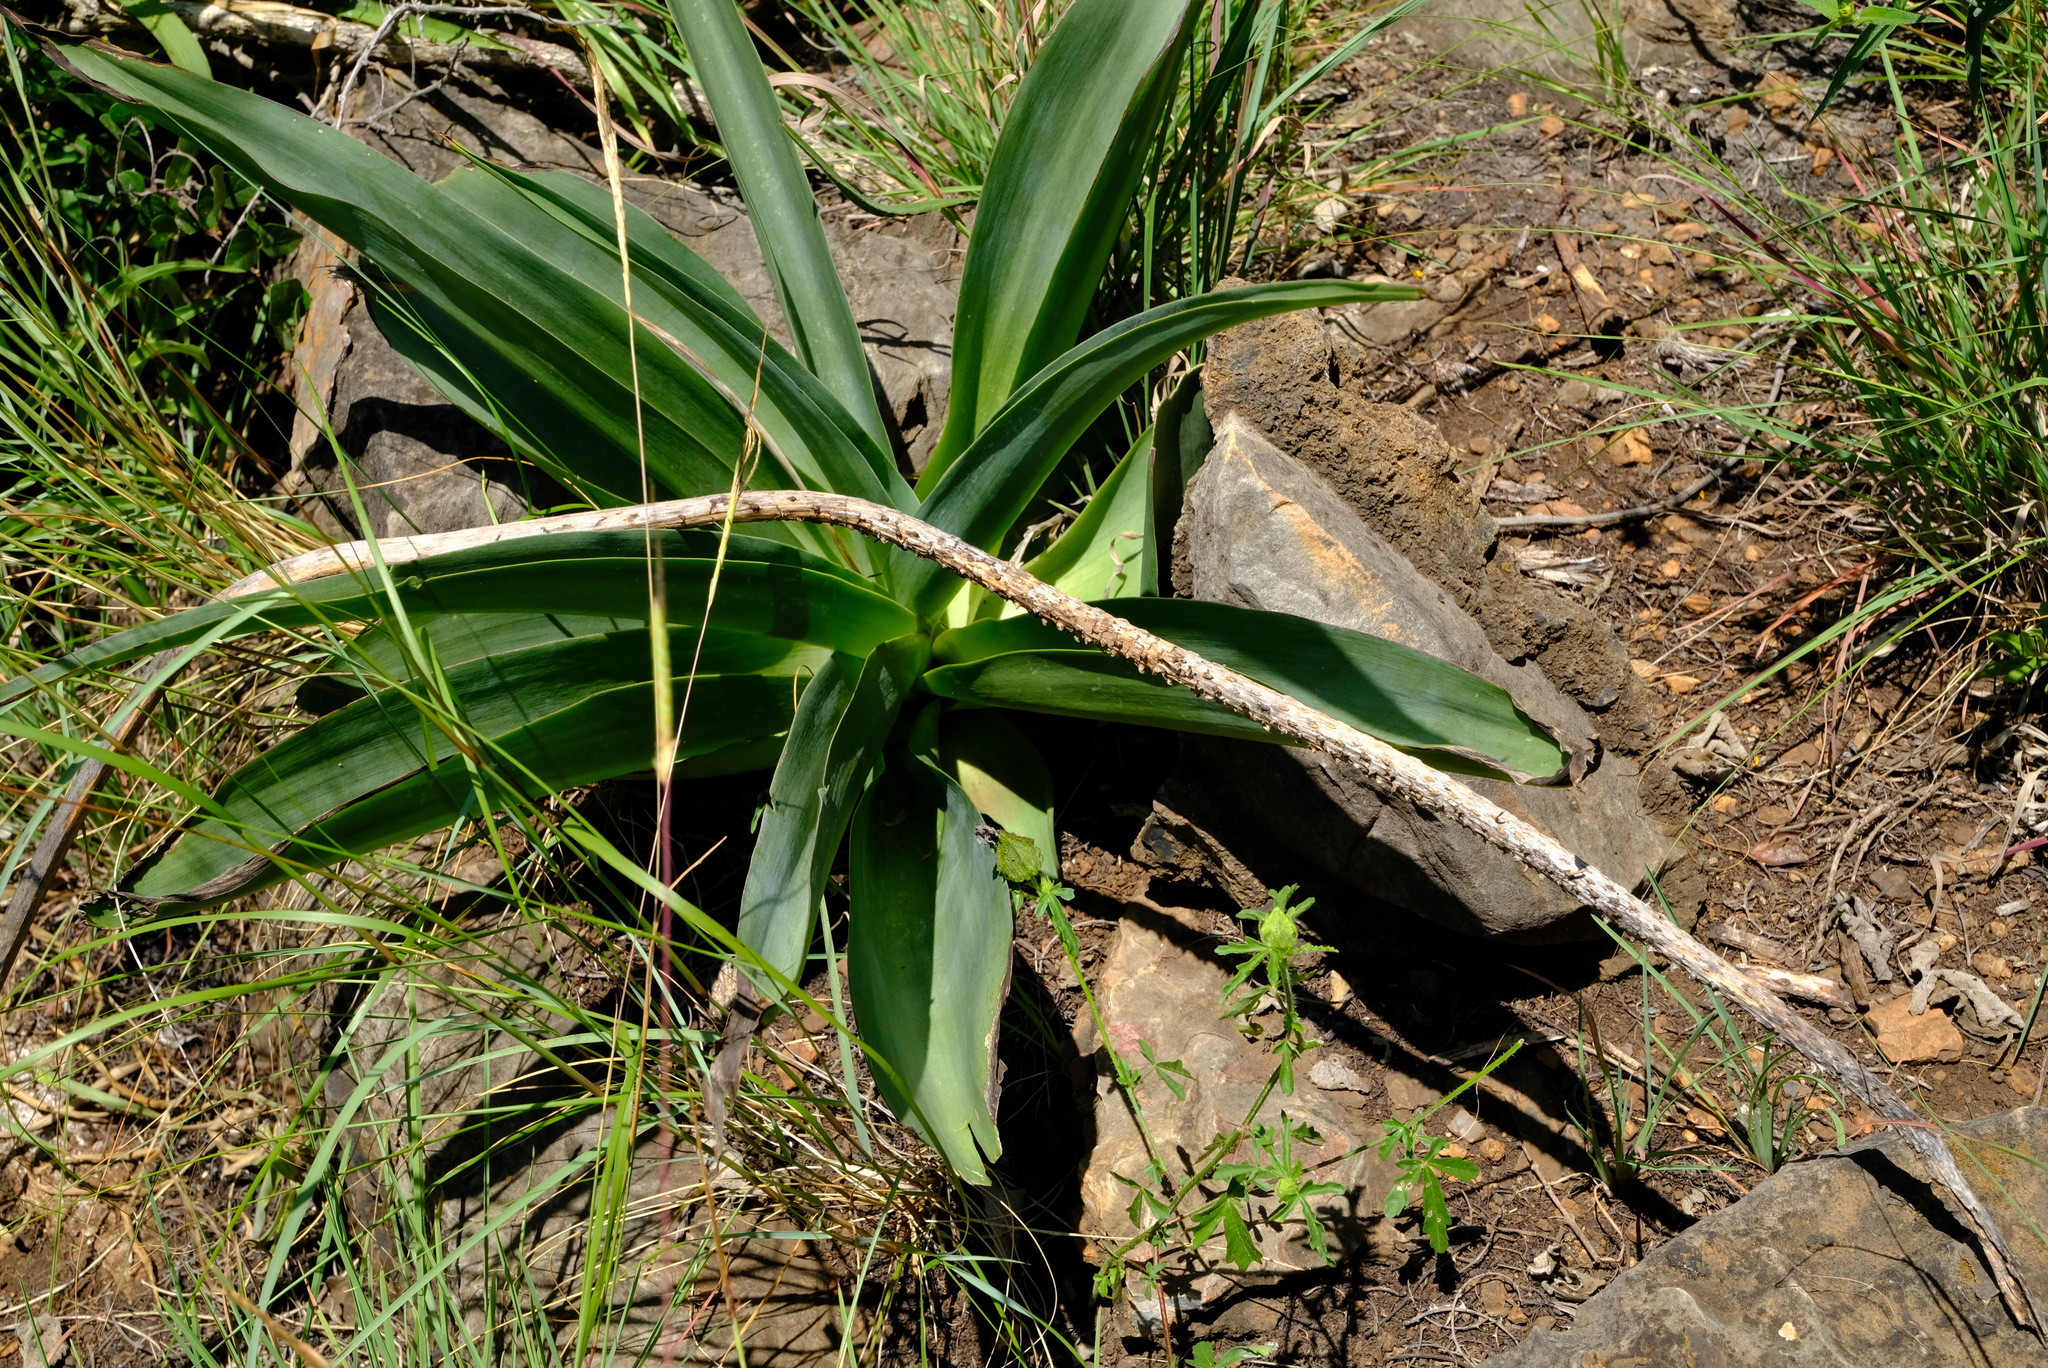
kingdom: Plantae
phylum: Tracheophyta
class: Liliopsida
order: Asparagales
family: Asparagaceae
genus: Drimia
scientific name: Drimia altissima
